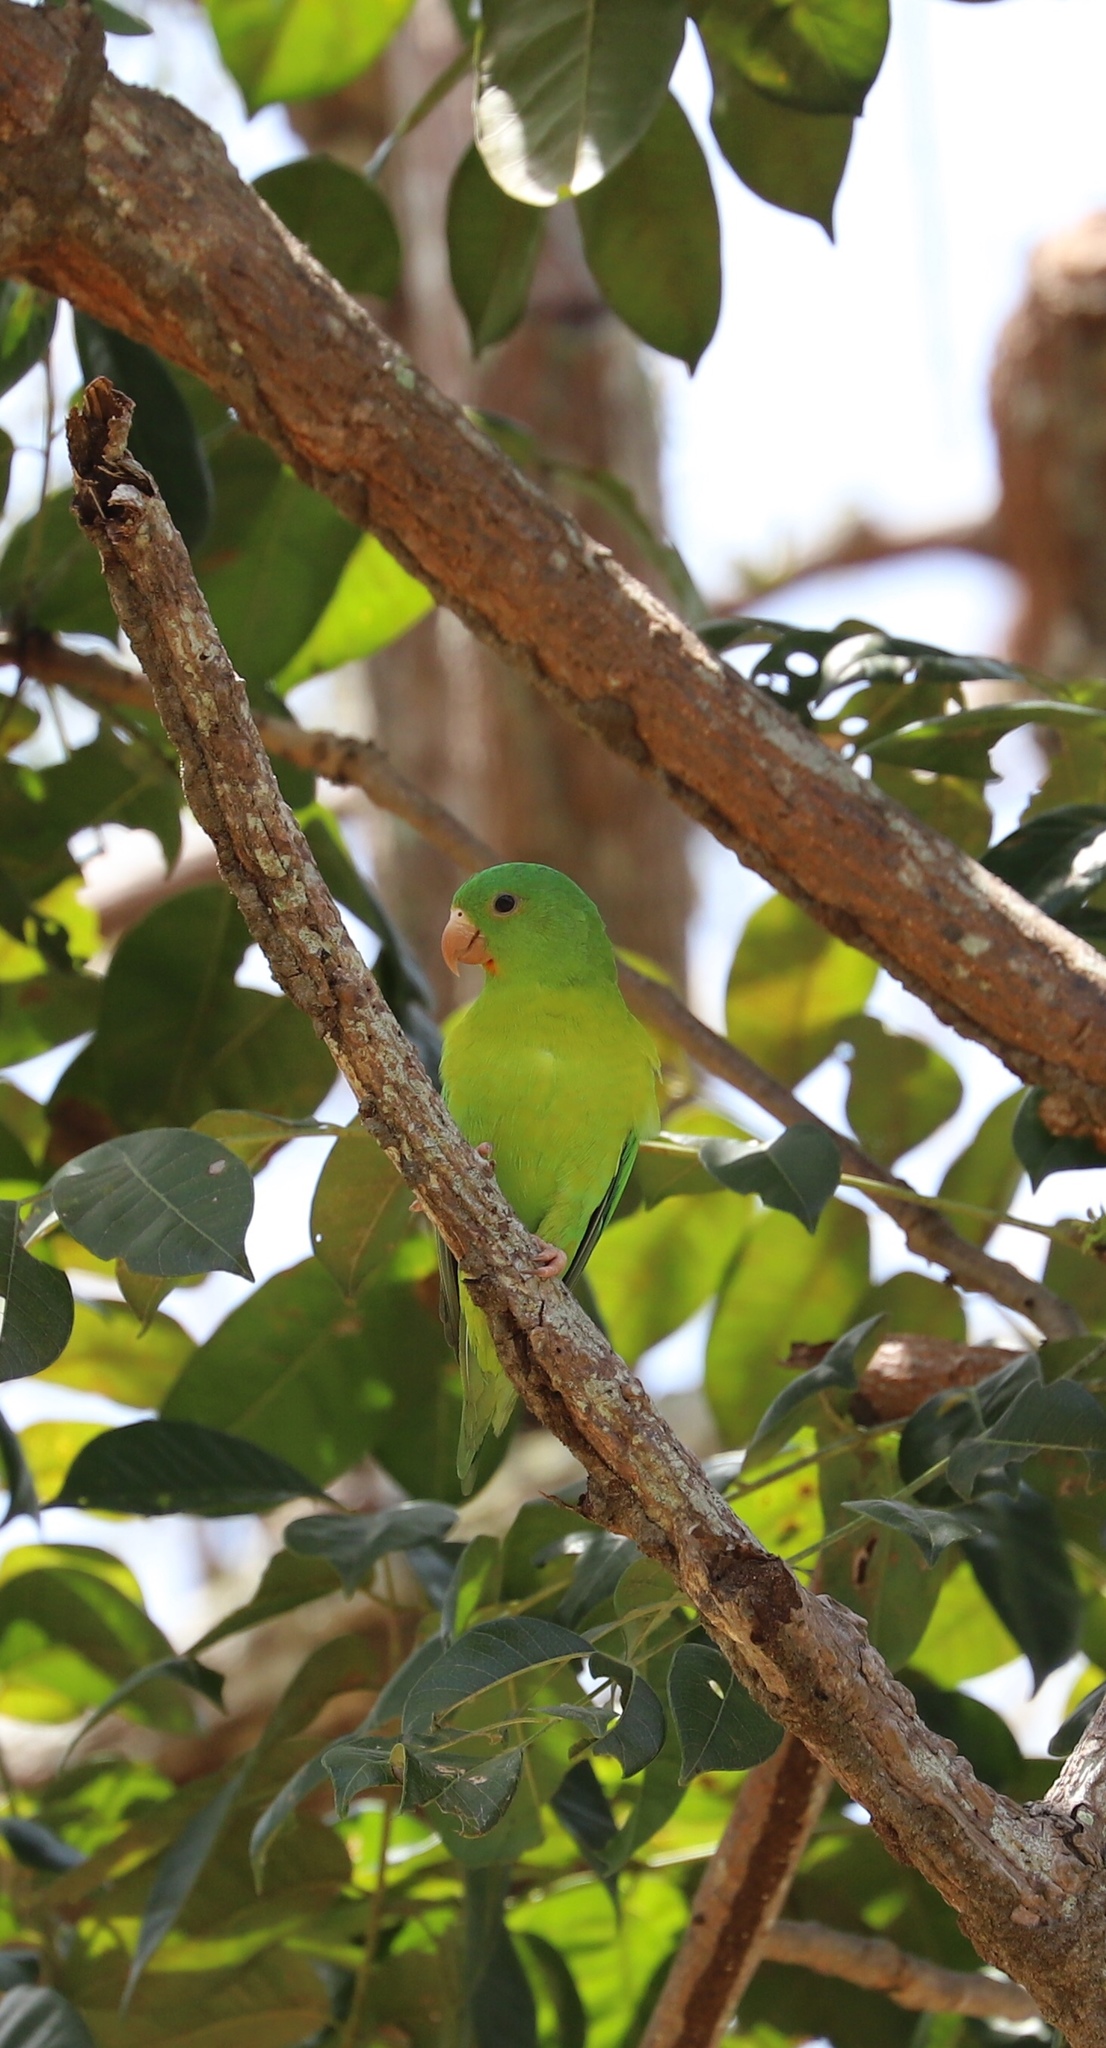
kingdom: Animalia
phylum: Chordata
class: Aves
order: Psittaciformes
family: Psittacidae
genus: Brotogeris
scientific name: Brotogeris jugularis
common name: Orange-chinned parakeet
